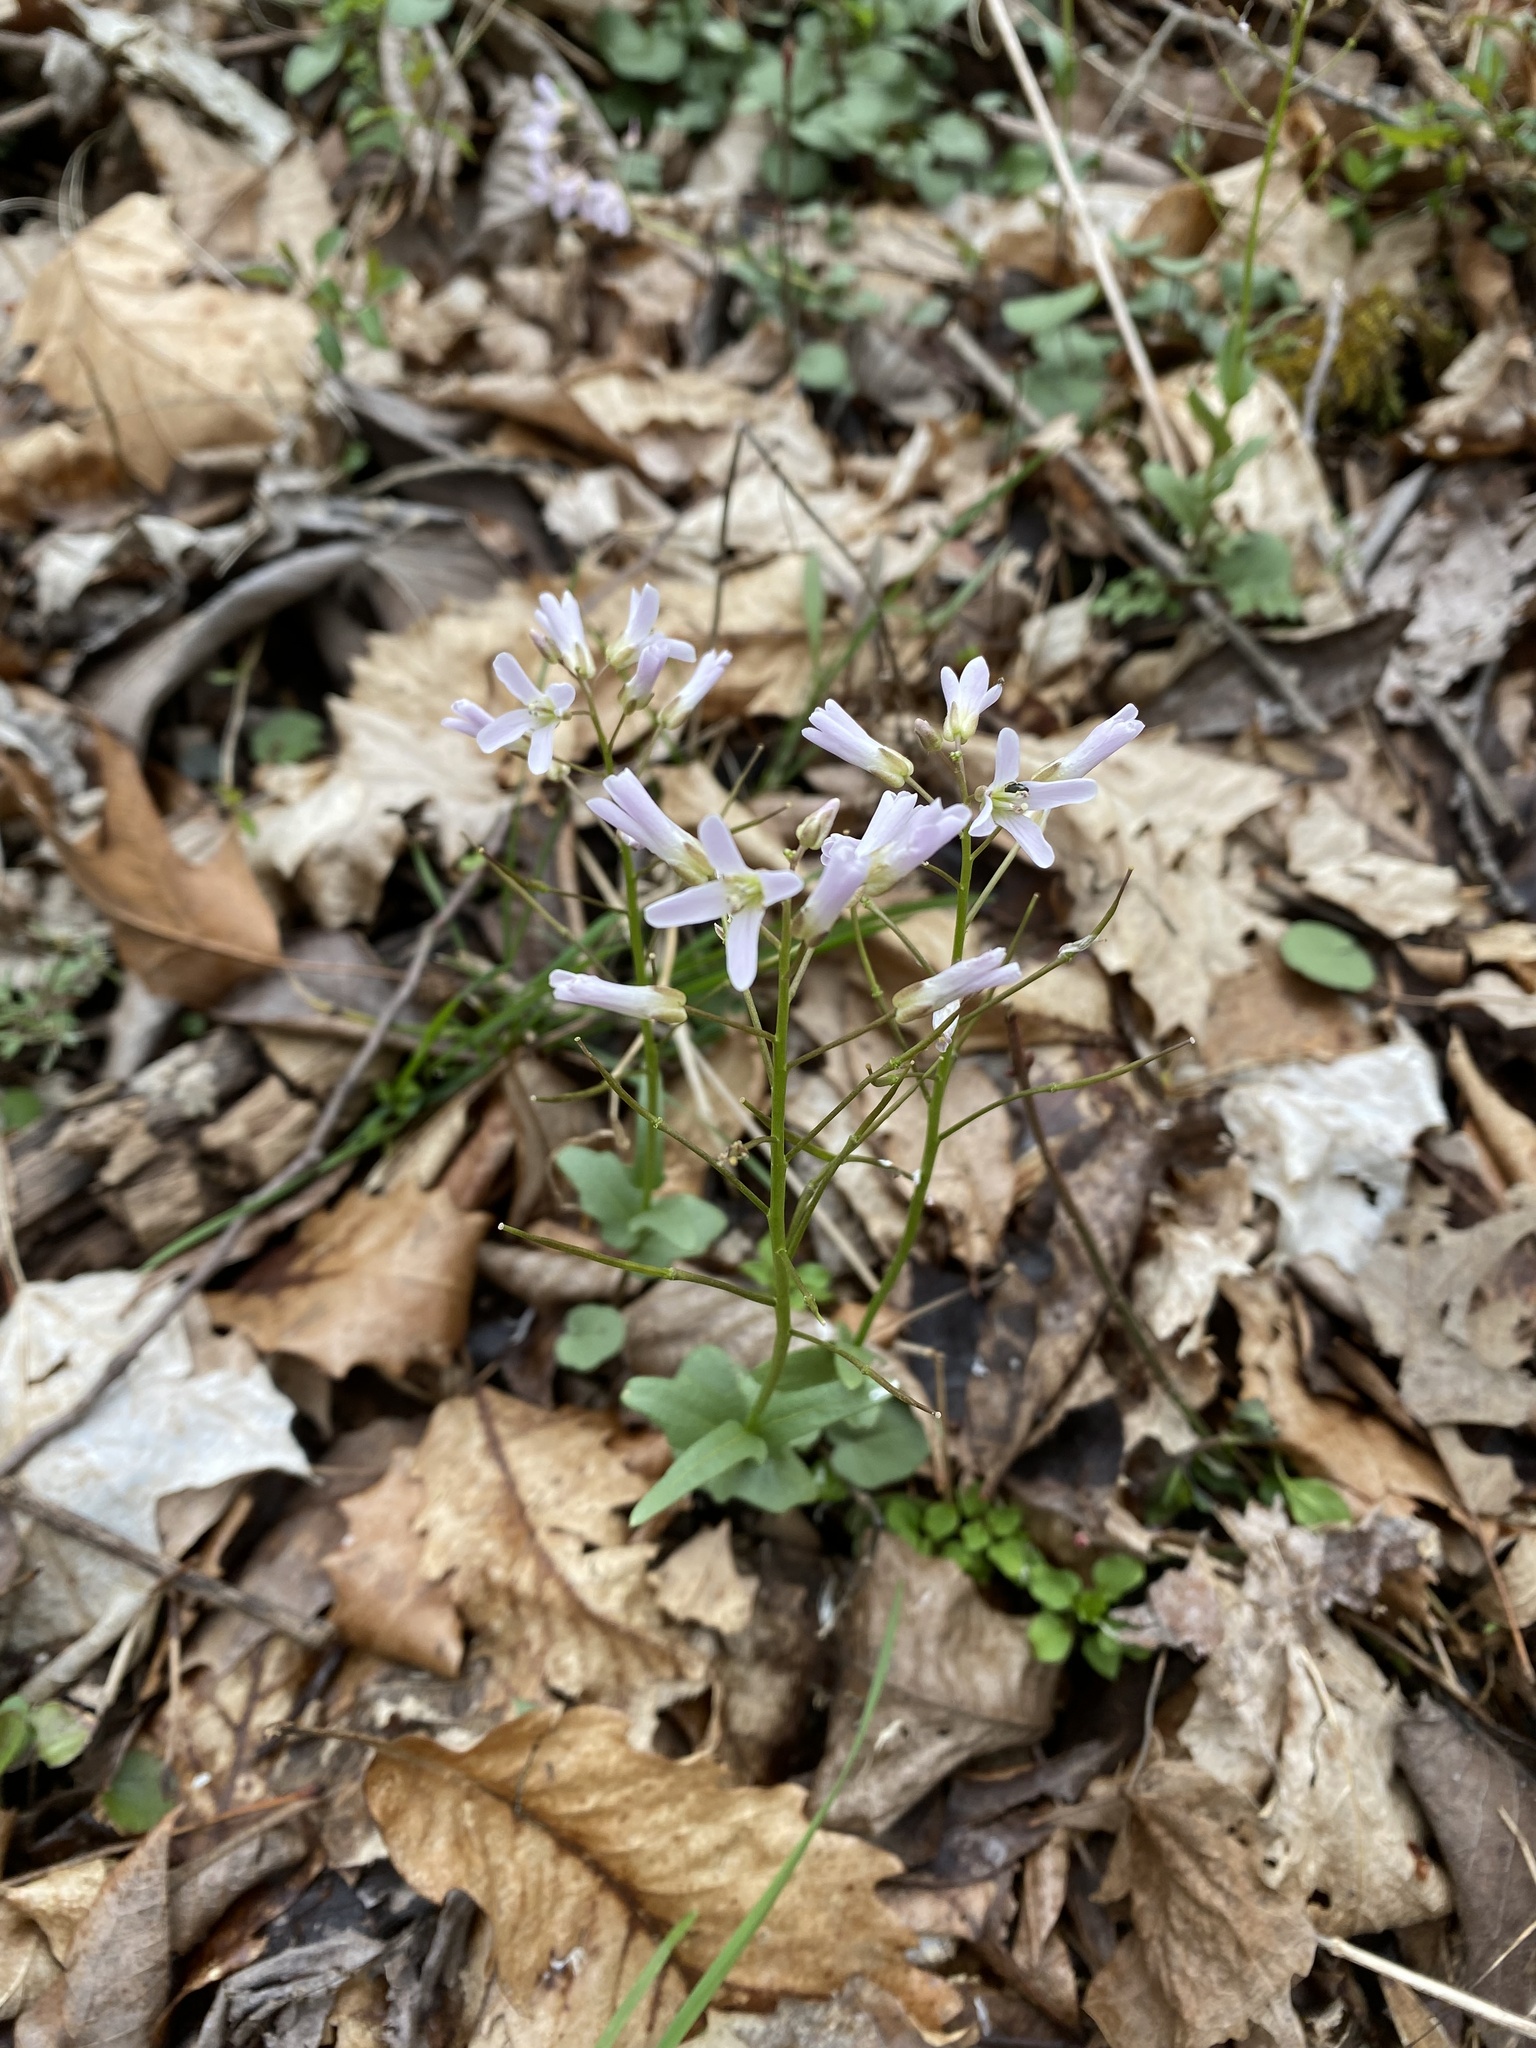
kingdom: Plantae
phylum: Tracheophyta
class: Magnoliopsida
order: Brassicales
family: Brassicaceae
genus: Cardamine
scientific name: Cardamine douglassii
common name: Purple cress
